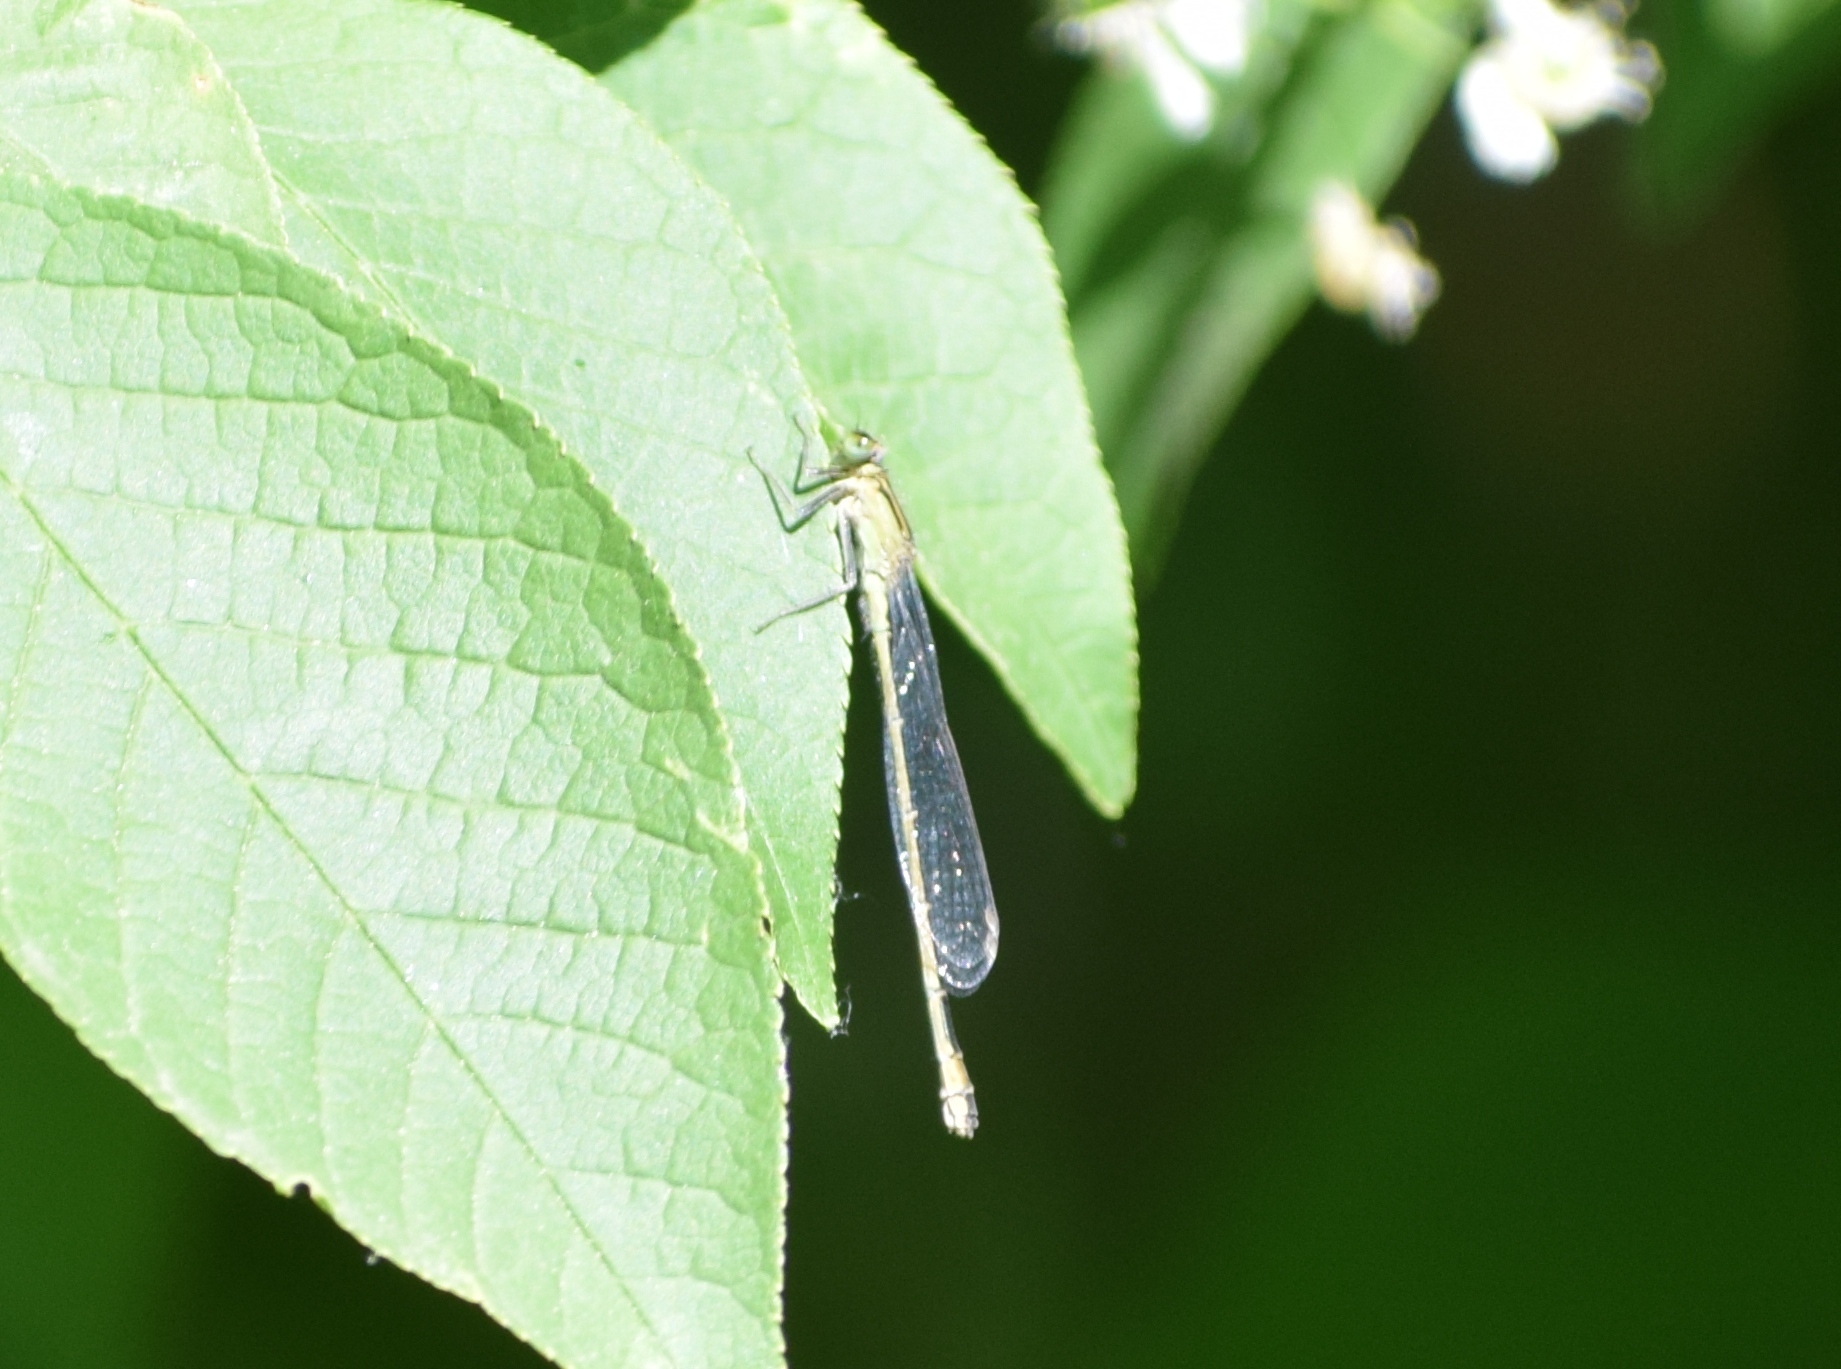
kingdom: Animalia
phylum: Arthropoda
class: Insecta
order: Odonata
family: Coenagrionidae
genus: Ischnura
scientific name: Ischnura elegans
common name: Blue-tailed damselfly
